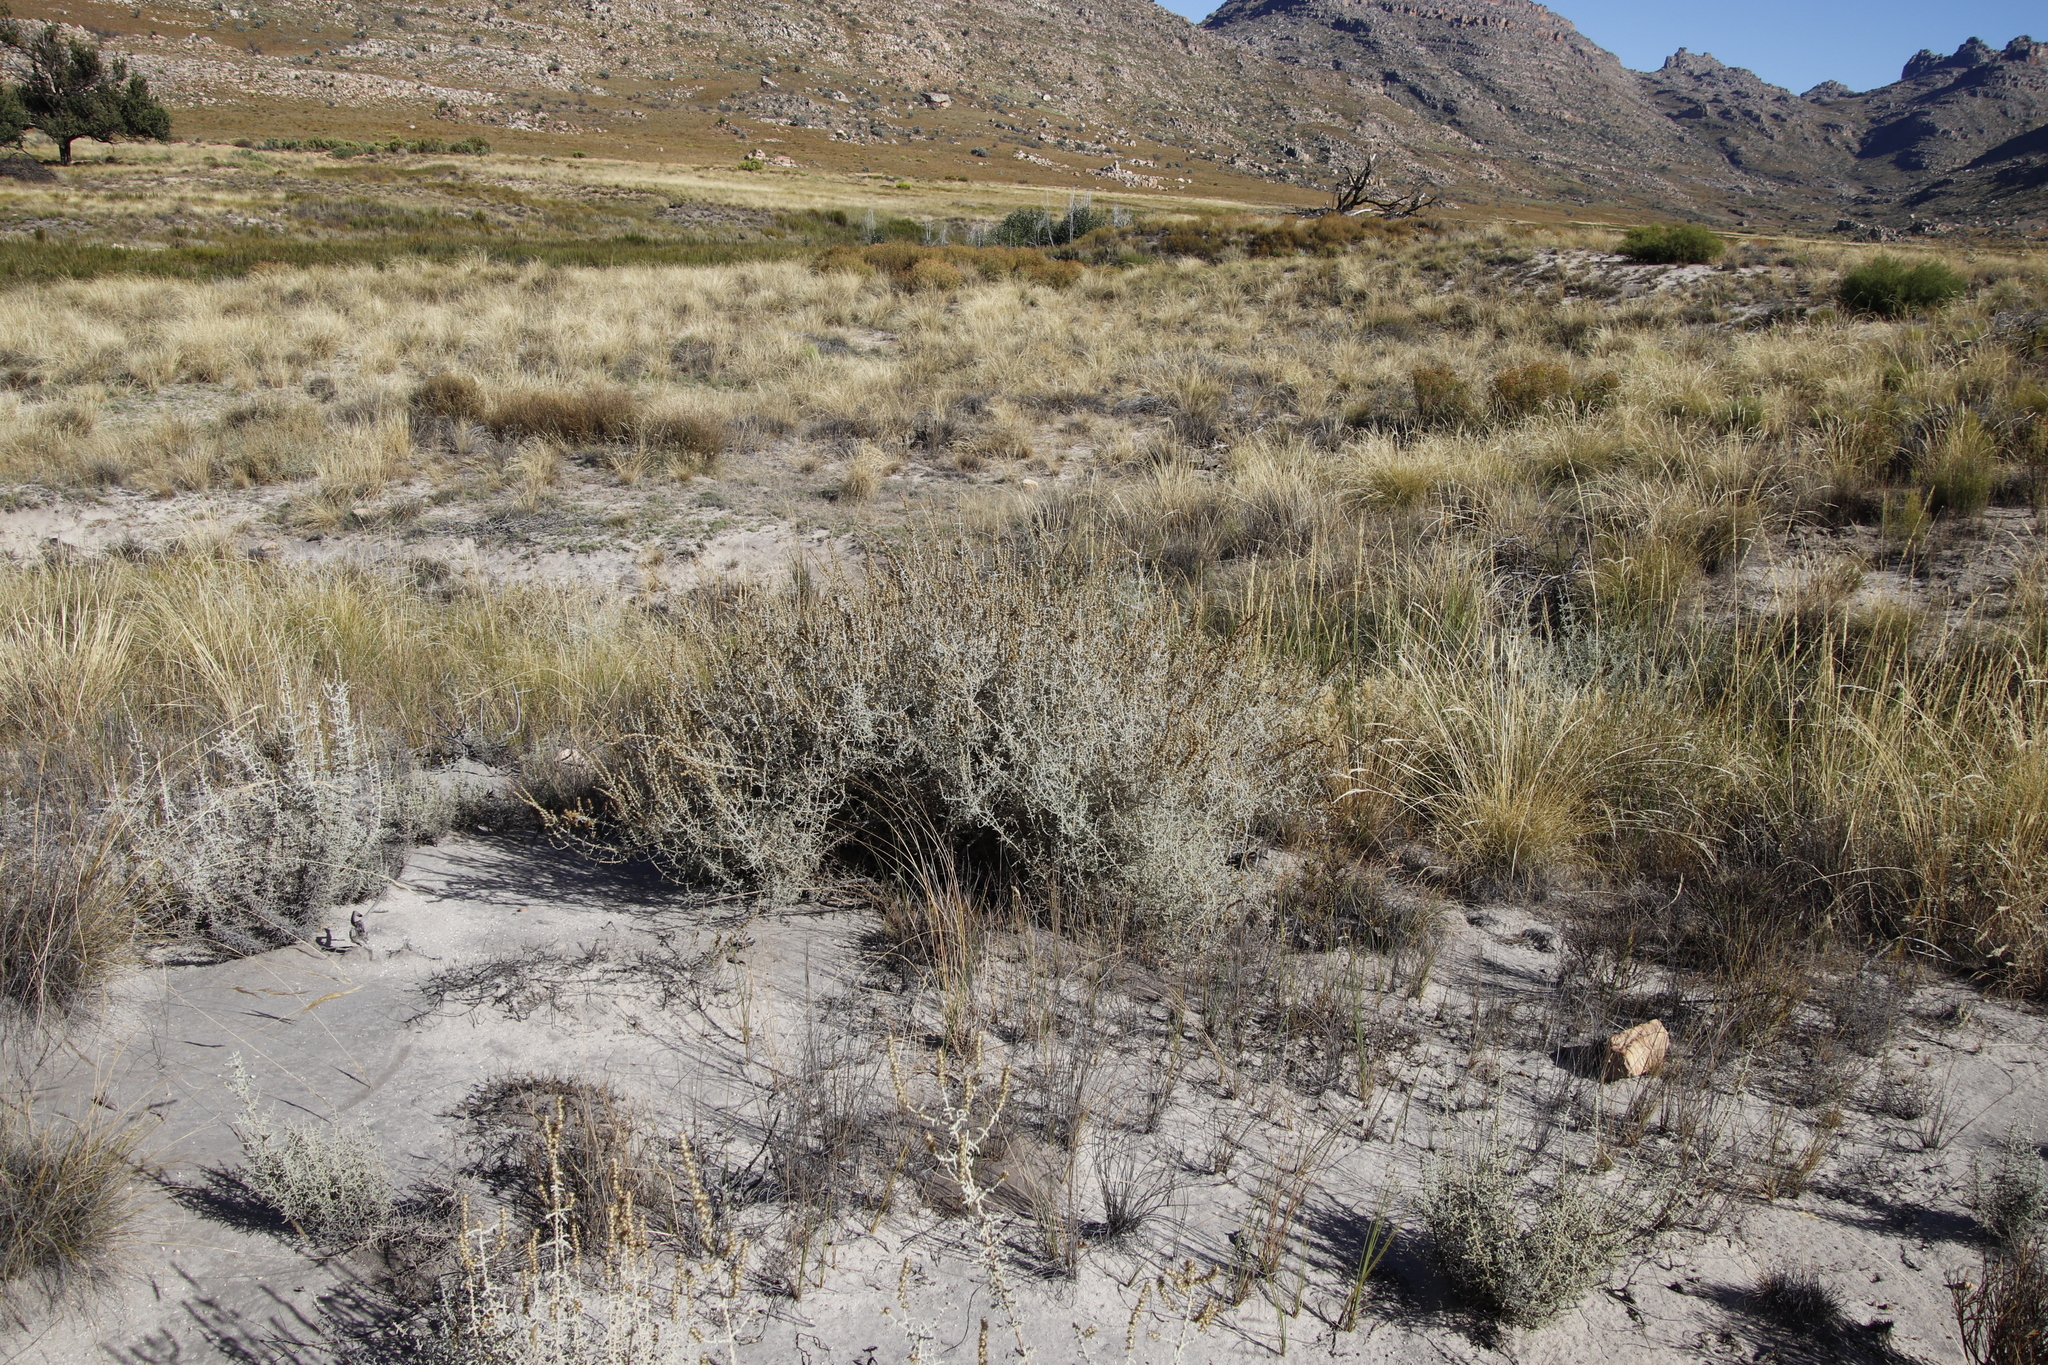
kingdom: Plantae
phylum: Tracheophyta
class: Magnoliopsida
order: Asterales
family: Asteraceae
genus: Seriphium
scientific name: Seriphium plumosum
